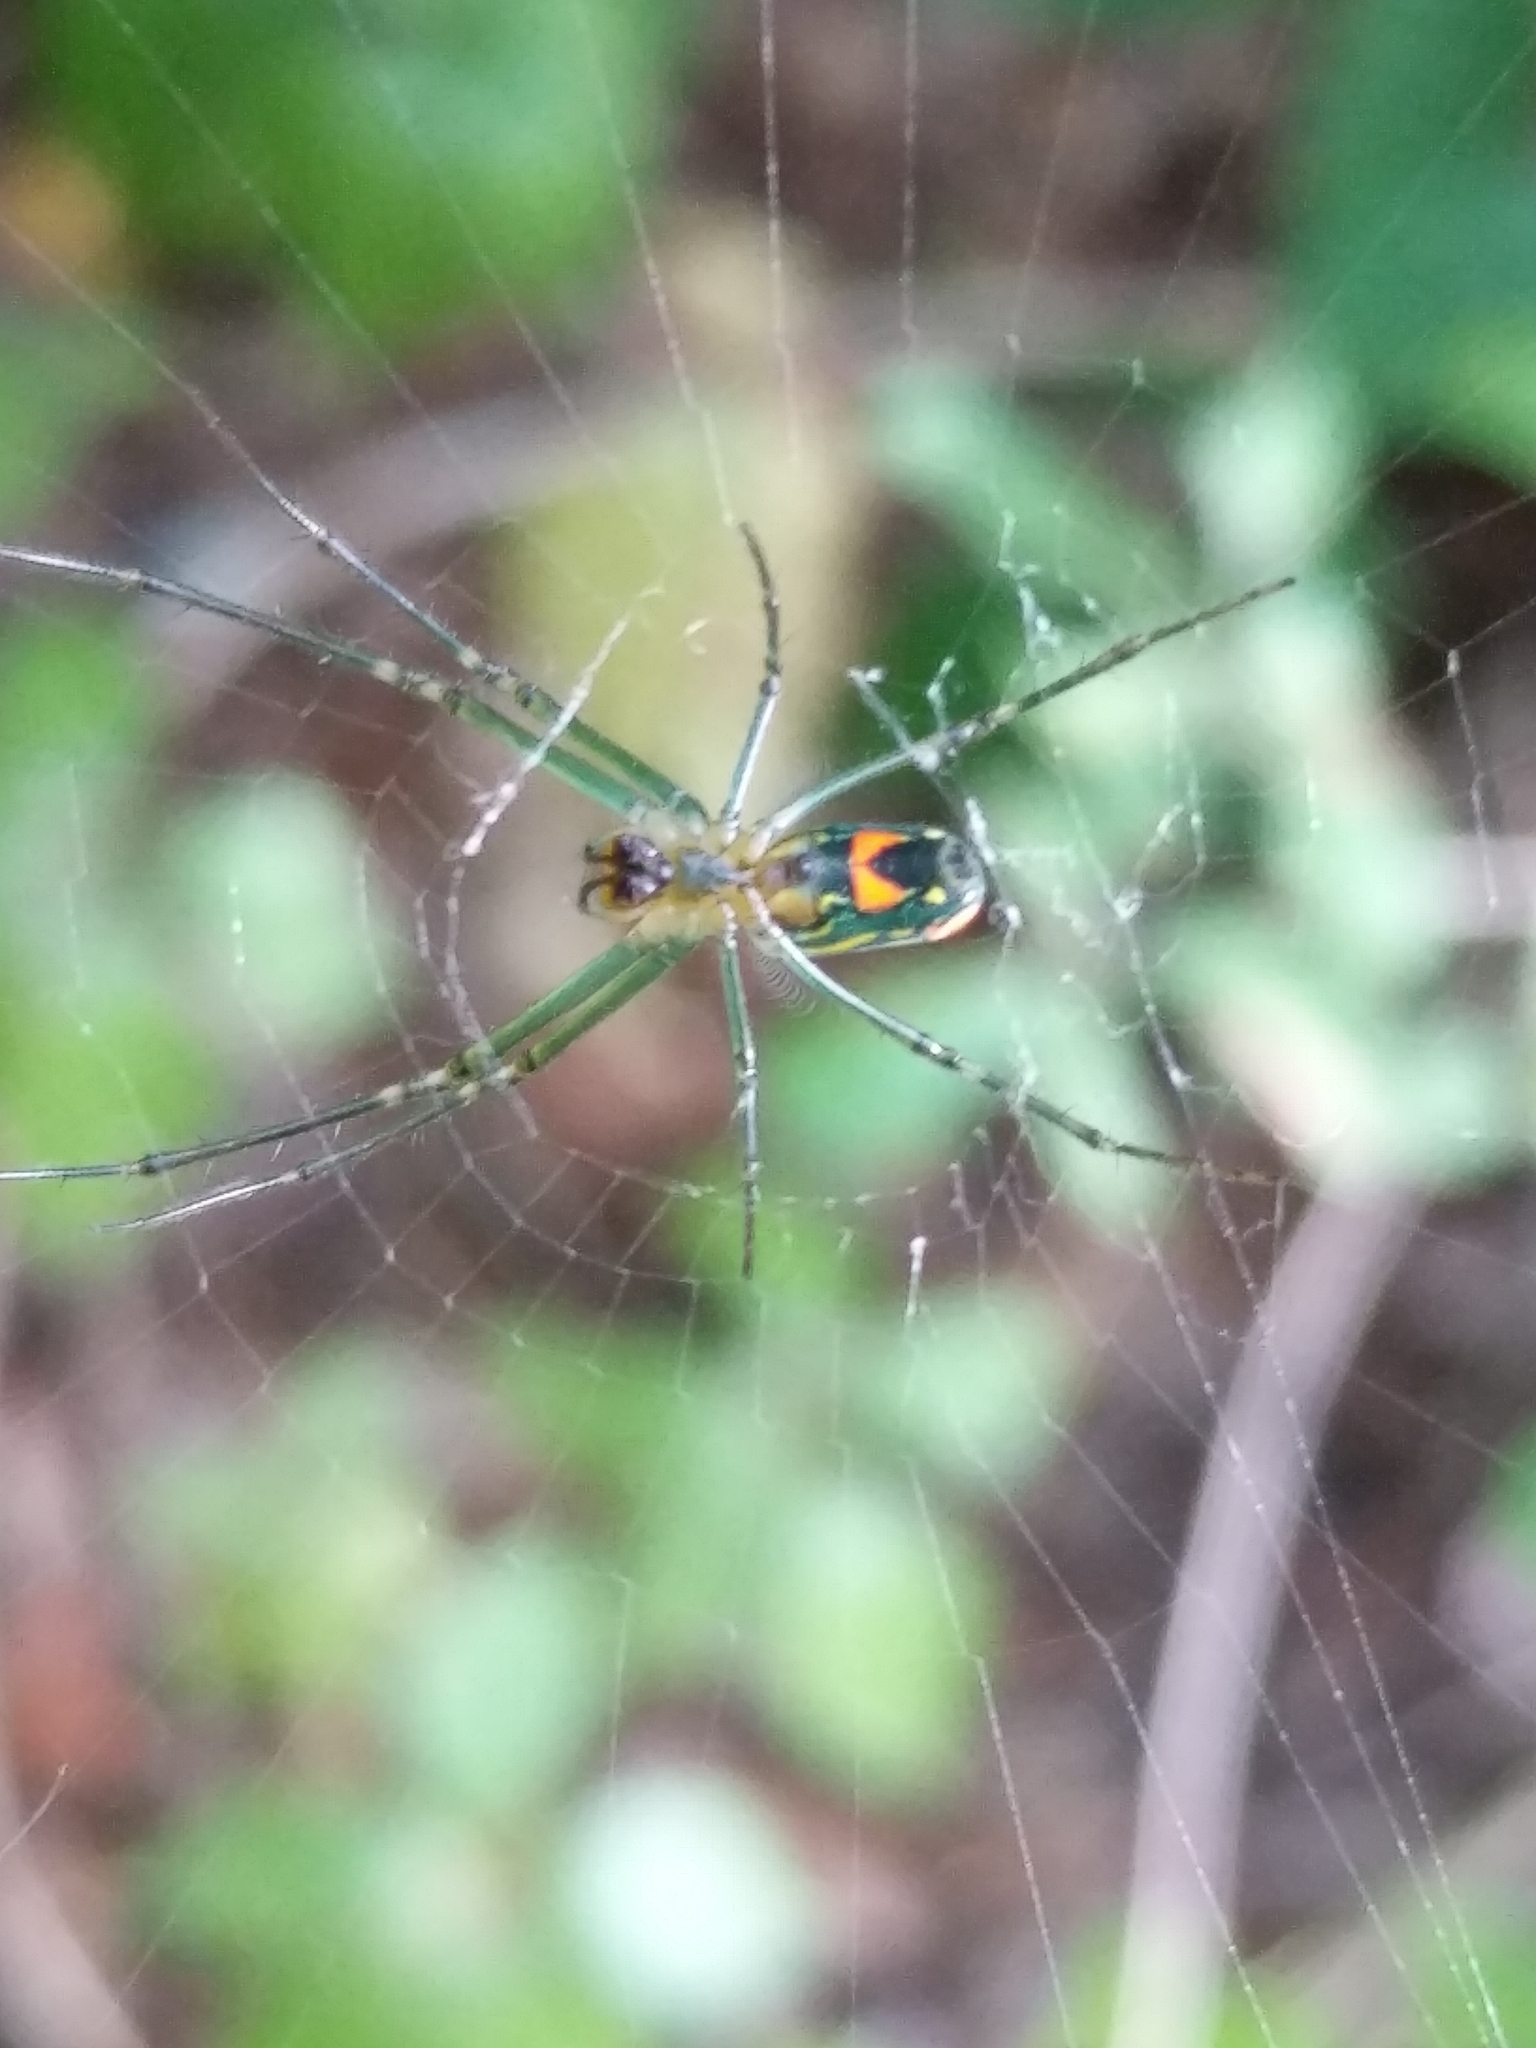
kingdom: Animalia
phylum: Arthropoda
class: Arachnida
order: Araneae
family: Tetragnathidae
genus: Leucauge
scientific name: Leucauge argyrobapta
